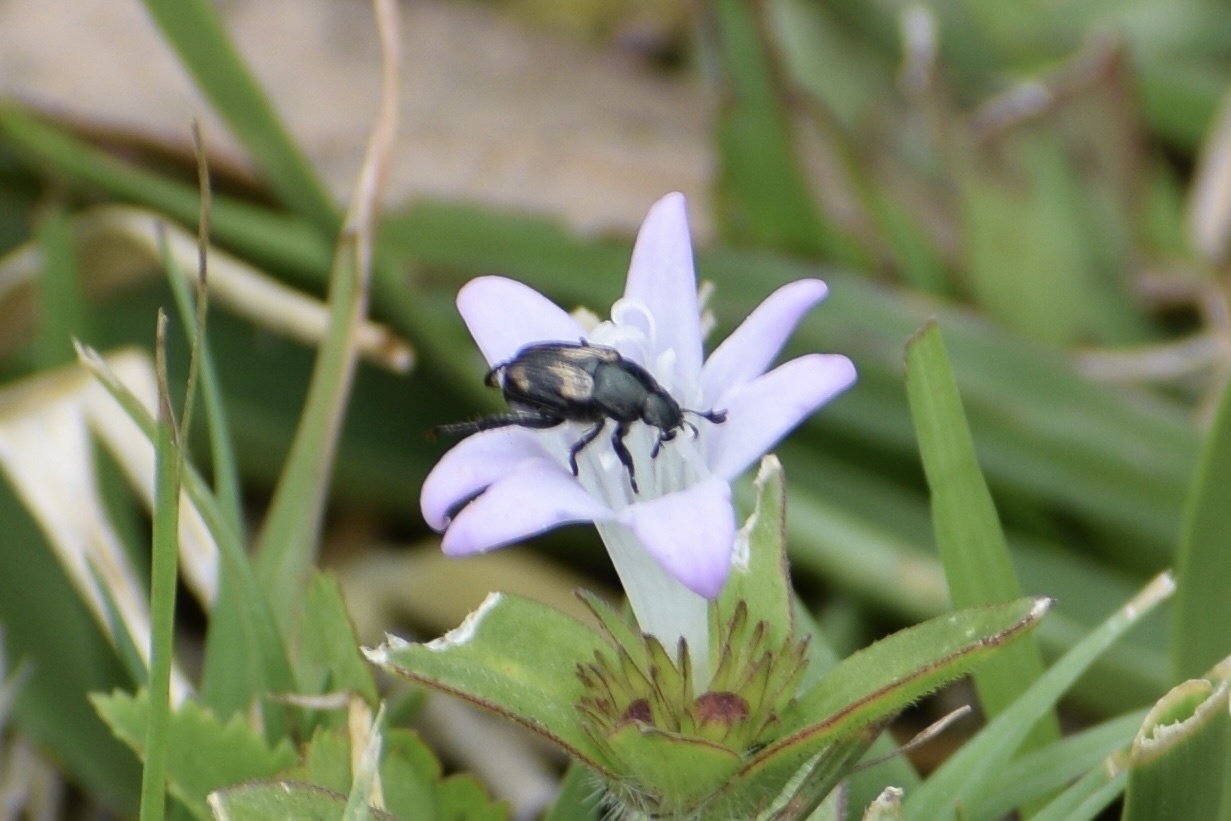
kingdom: Animalia
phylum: Arthropoda
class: Insecta
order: Coleoptera
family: Scarabaeidae
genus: Strigoderma
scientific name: Strigoderma pygmaea
